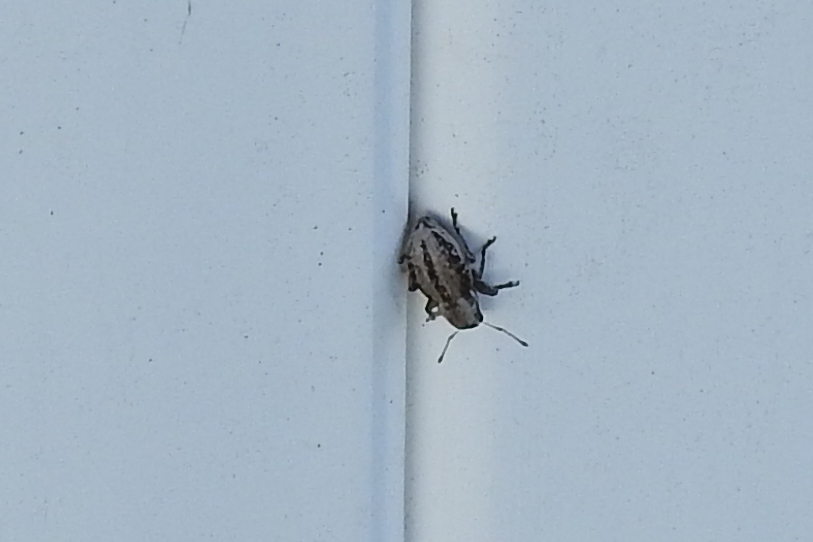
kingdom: Animalia
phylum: Arthropoda
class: Insecta
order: Coleoptera
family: Curculionidae
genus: Atrichonotus
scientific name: Atrichonotus taeniatulus
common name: Small lucerne weevil
